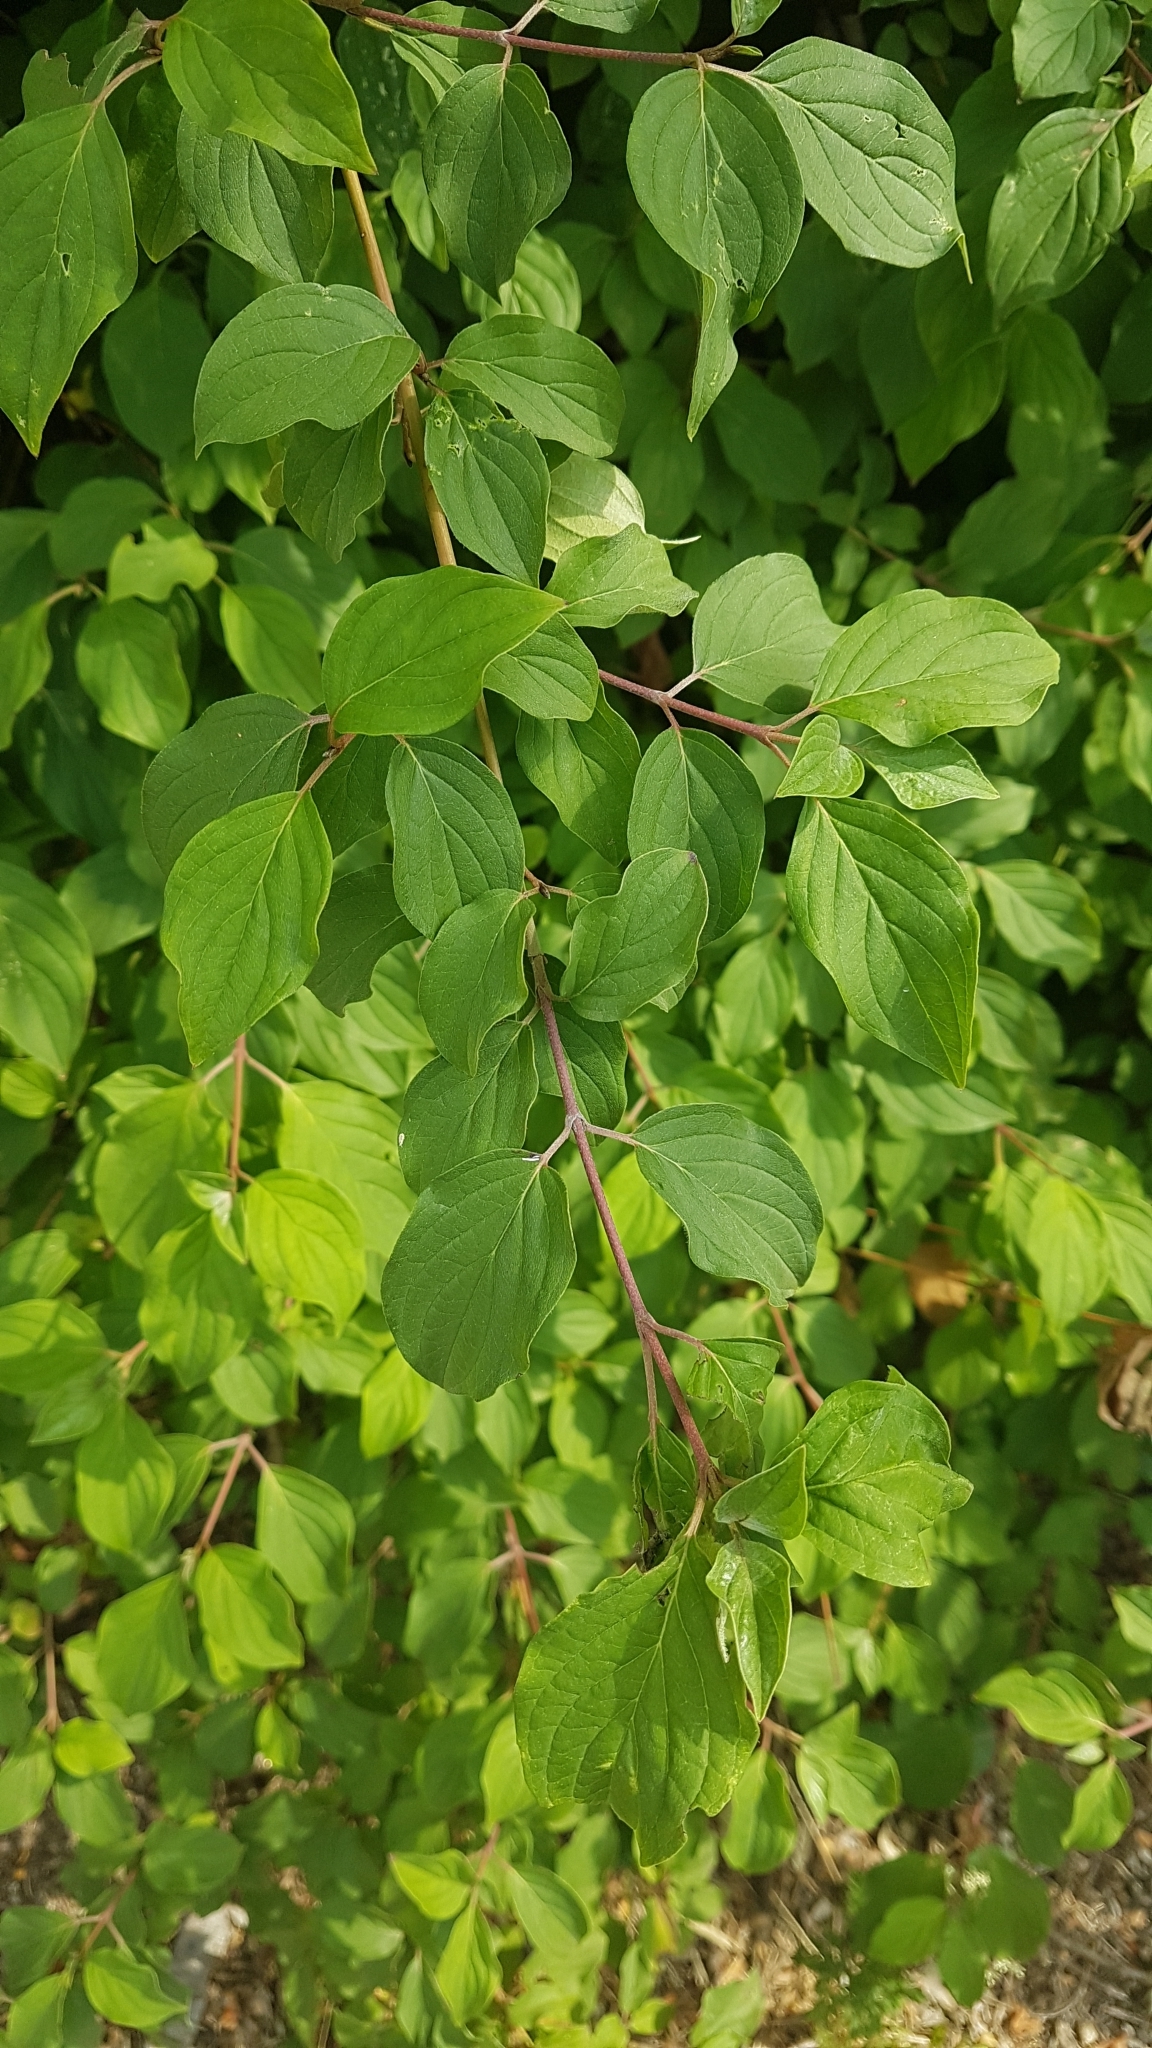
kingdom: Plantae
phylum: Tracheophyta
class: Magnoliopsida
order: Cornales
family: Cornaceae
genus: Cornus
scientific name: Cornus sanguinea
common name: Dogwood
